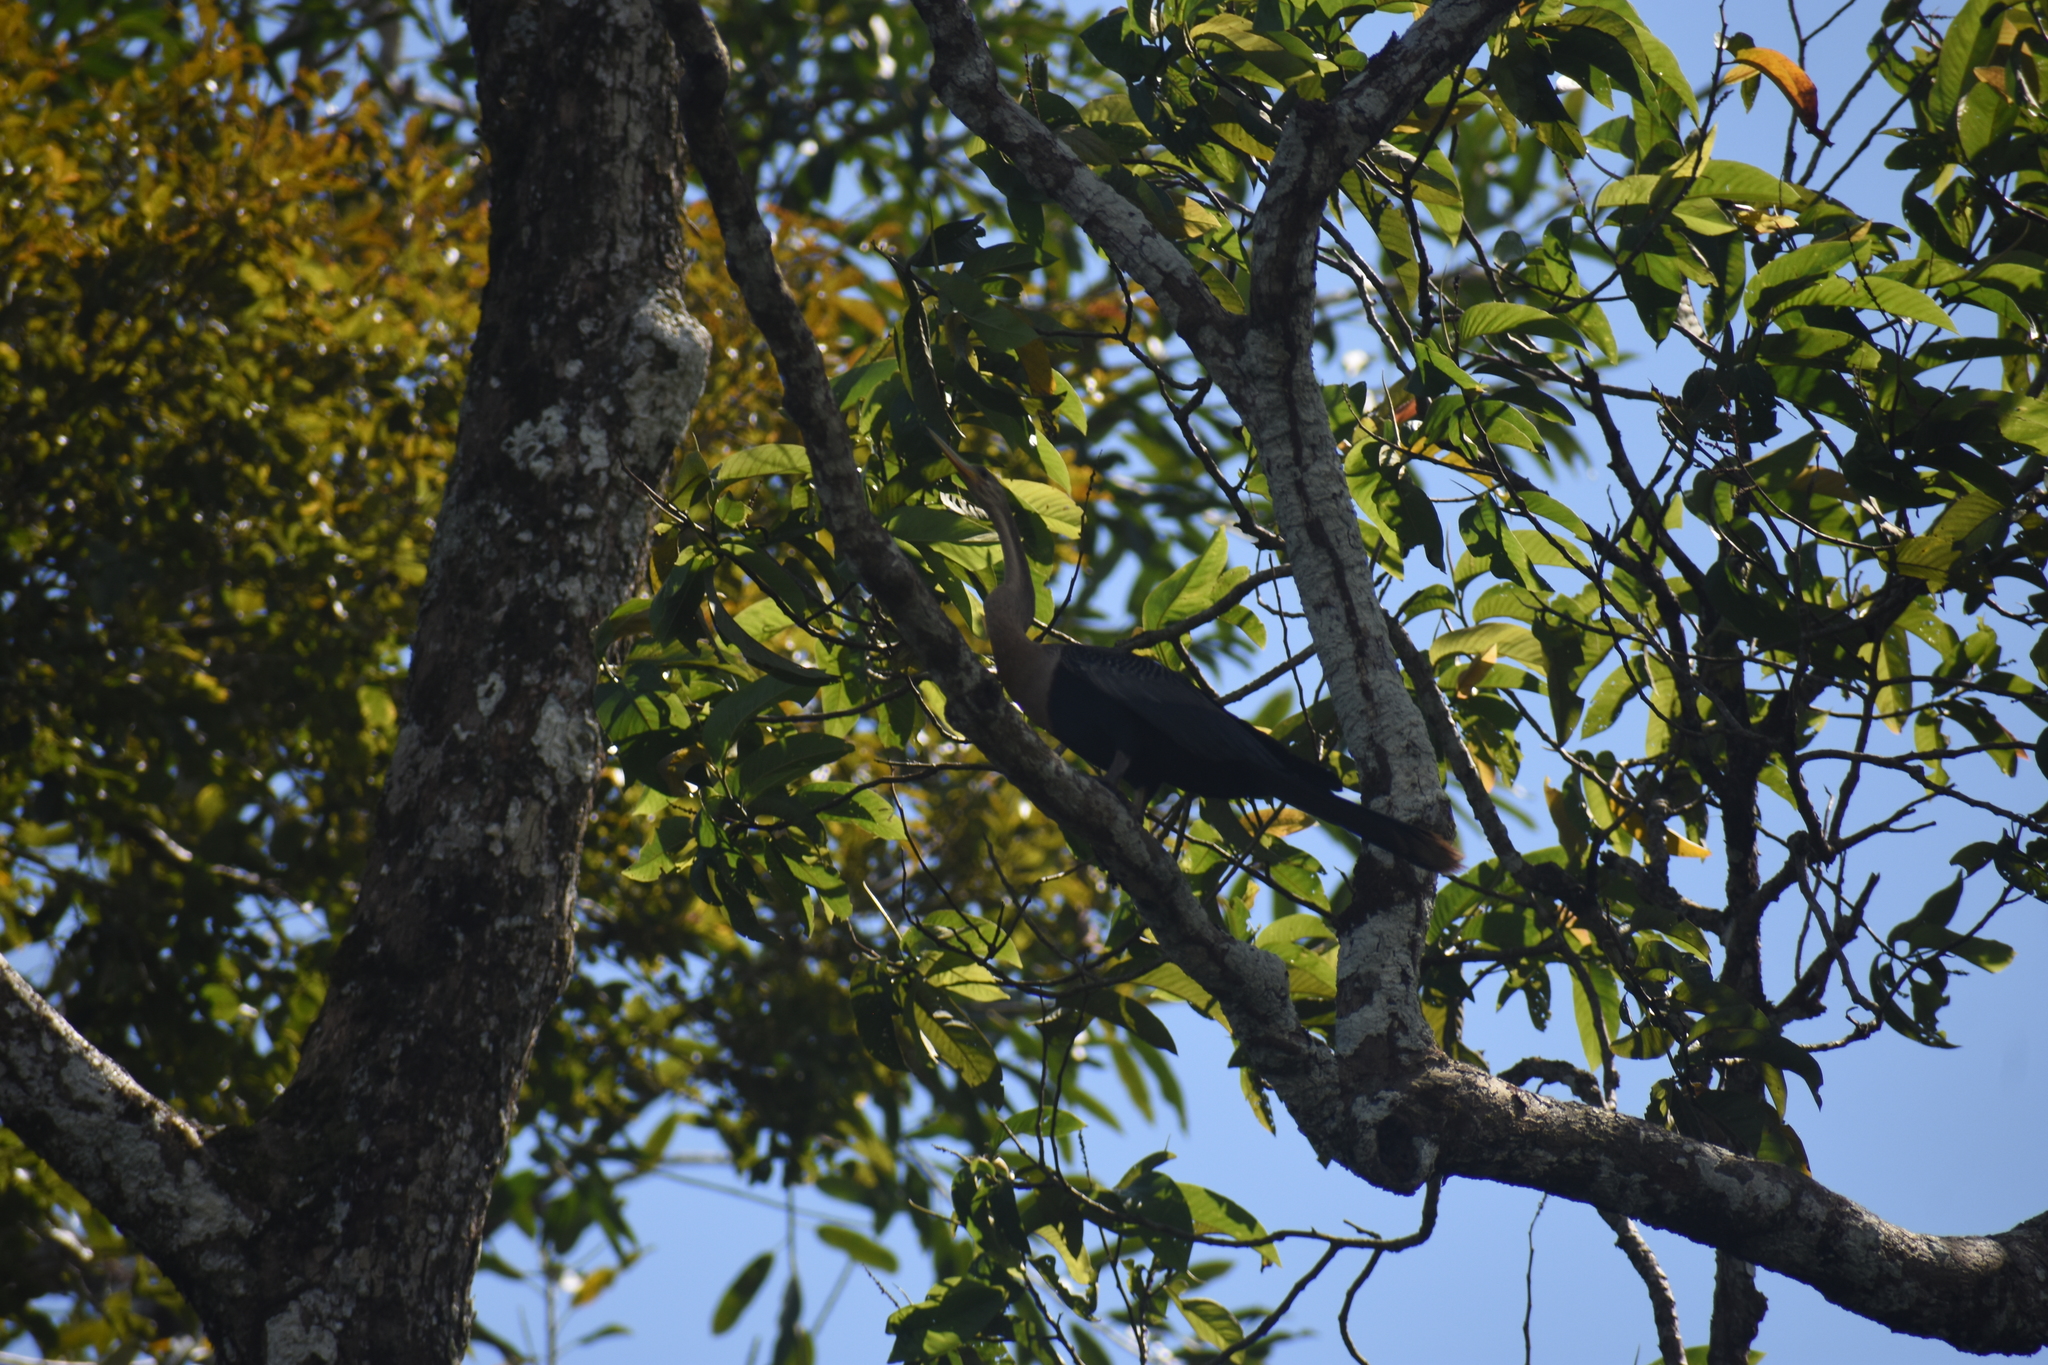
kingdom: Animalia
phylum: Chordata
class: Aves
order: Suliformes
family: Anhingidae
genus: Anhinga
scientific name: Anhinga anhinga
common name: Anhinga
